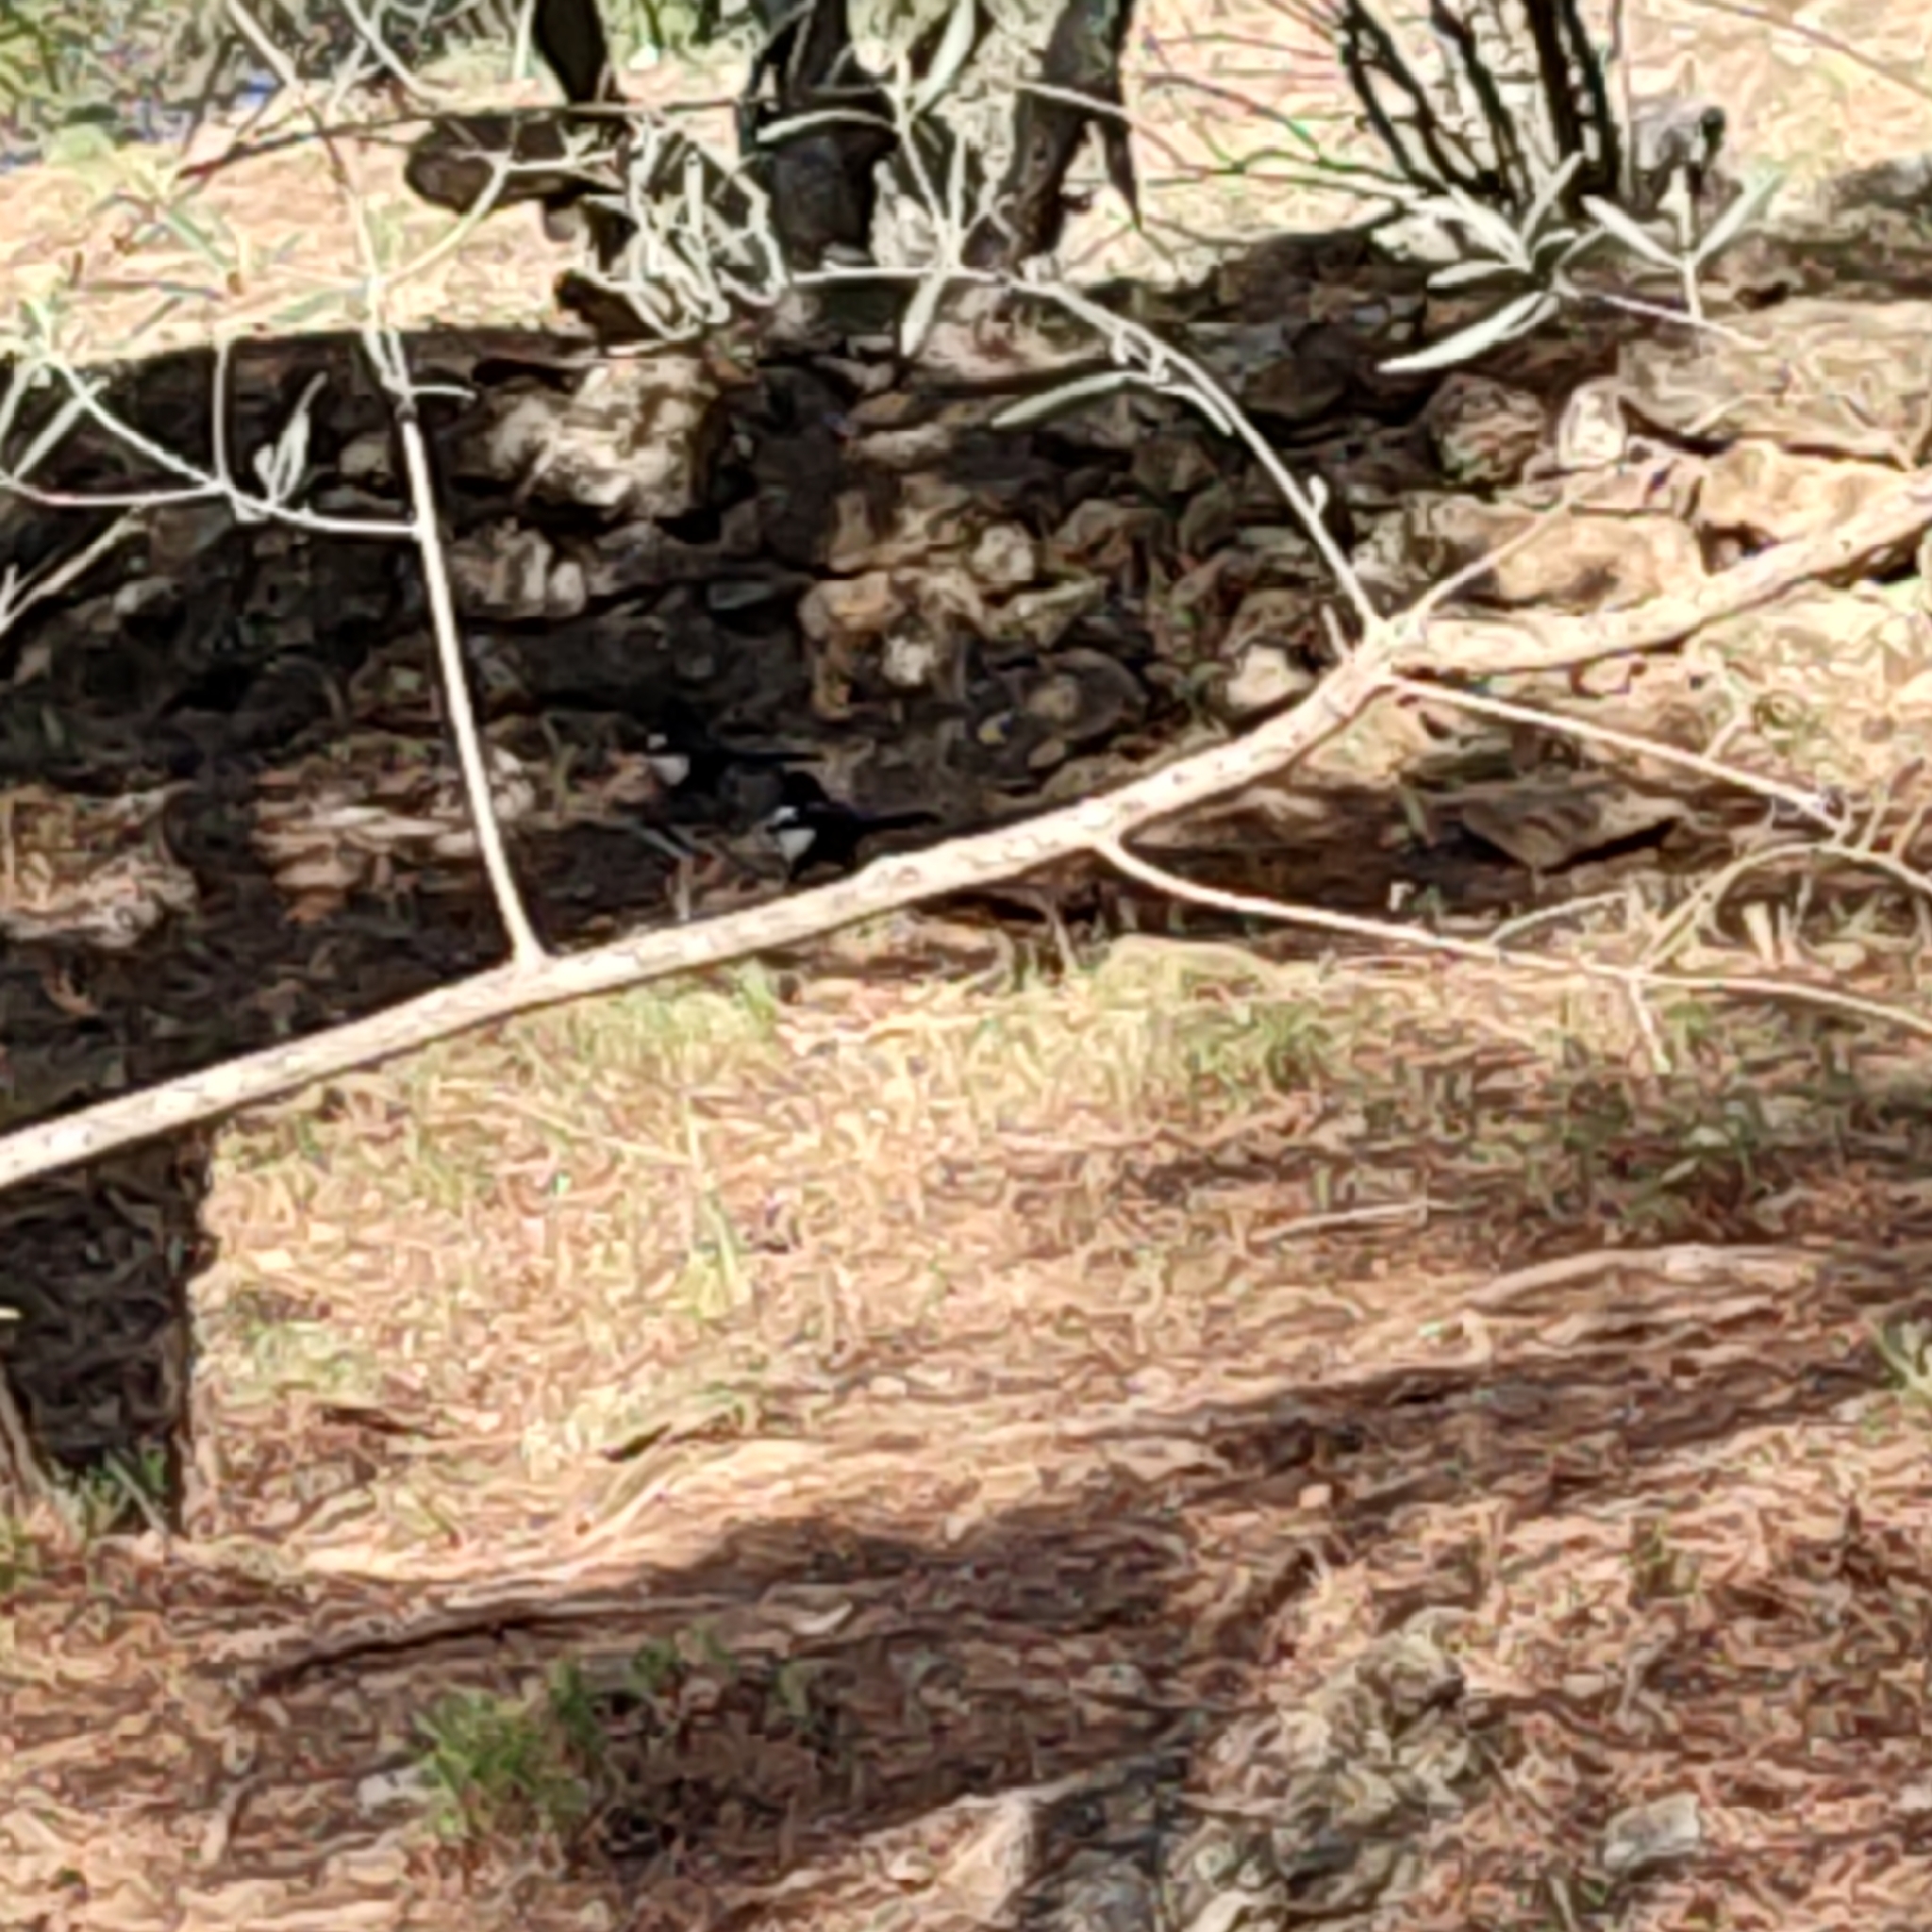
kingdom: Animalia
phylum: Chordata
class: Aves
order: Passeriformes
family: Corvidae
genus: Pica
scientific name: Pica pica
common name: Eurasian magpie
